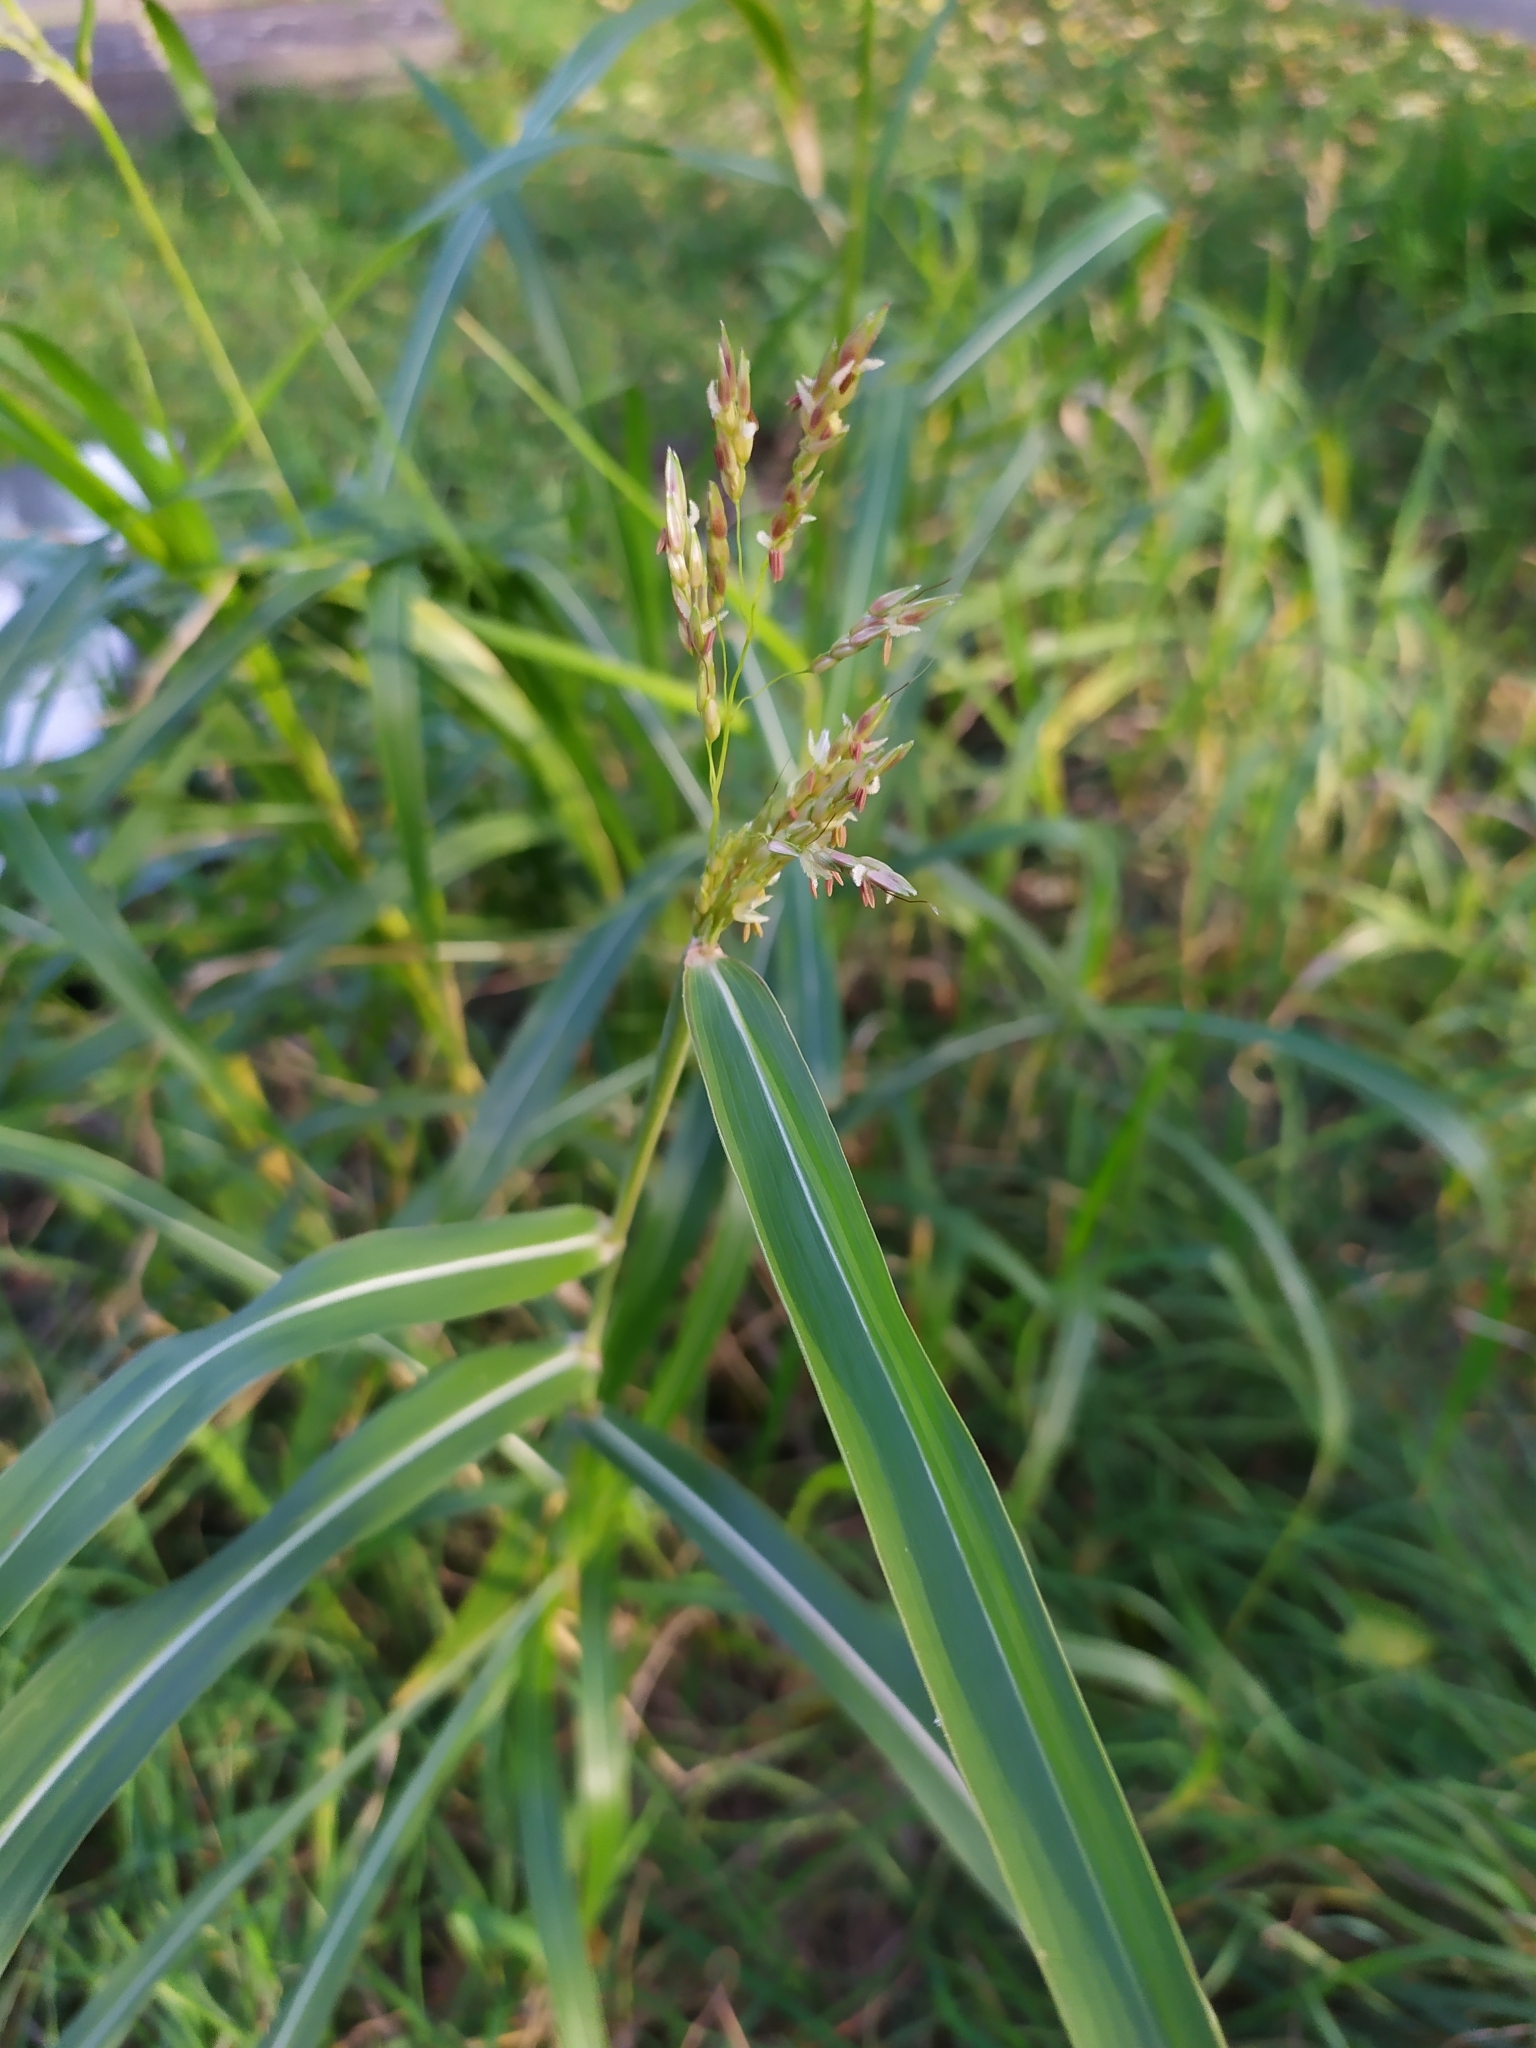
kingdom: Plantae
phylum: Tracheophyta
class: Liliopsida
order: Poales
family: Poaceae
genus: Sorghum
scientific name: Sorghum halepense
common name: Johnson-grass
